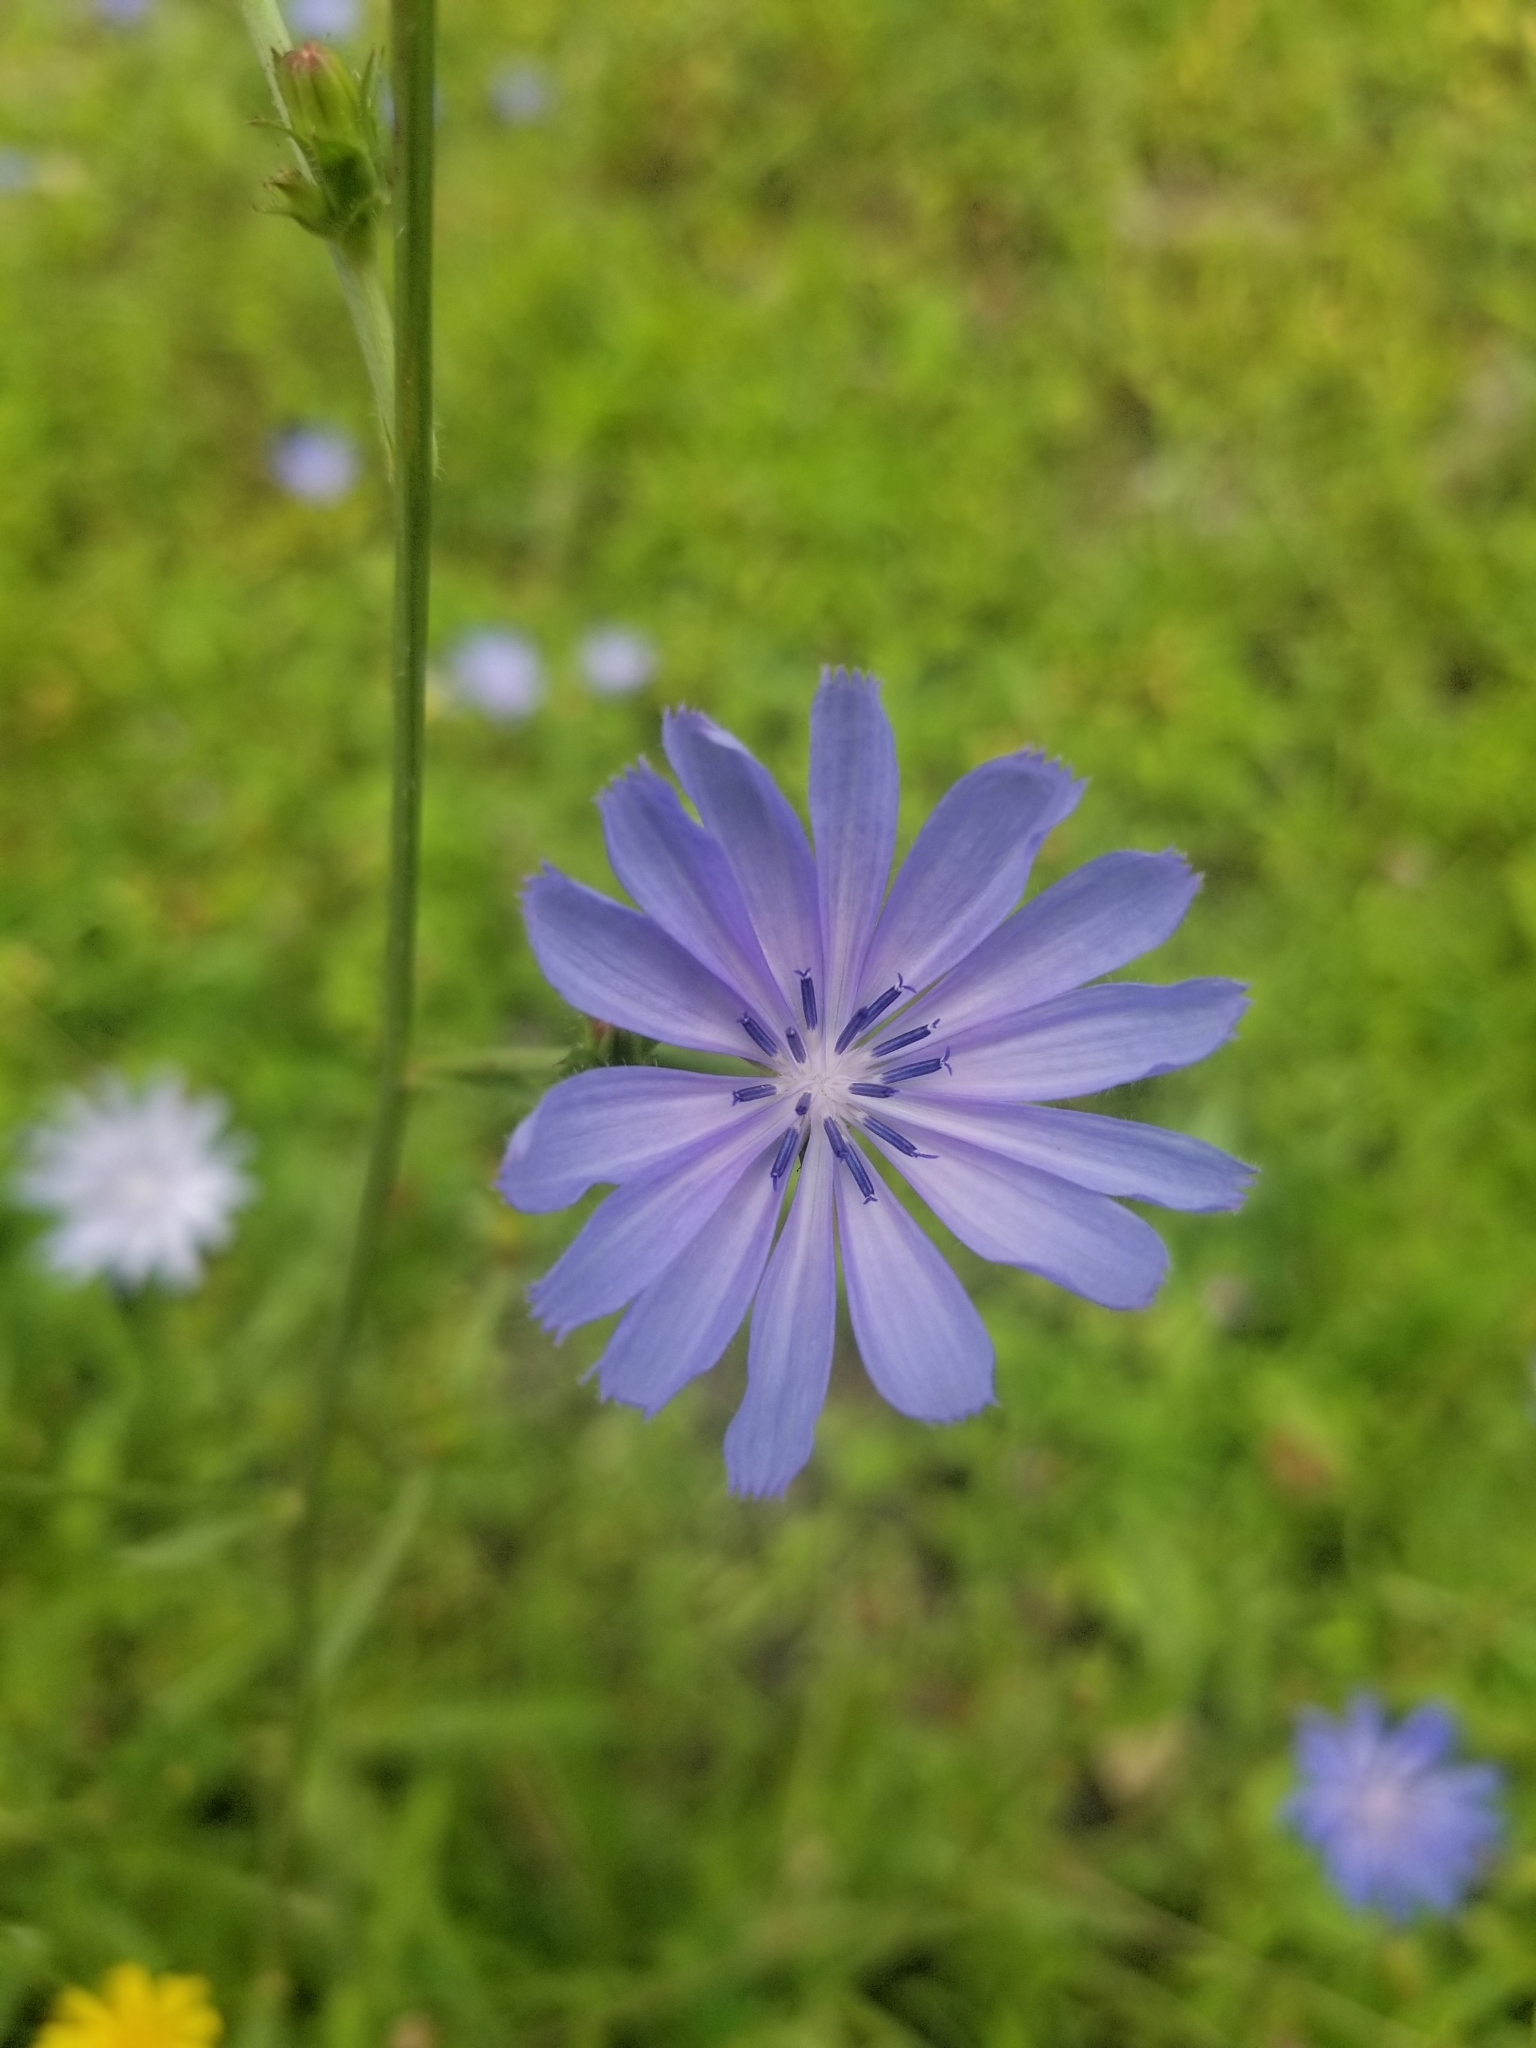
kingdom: Plantae
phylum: Tracheophyta
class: Magnoliopsida
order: Asterales
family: Asteraceae
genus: Cichorium
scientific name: Cichorium intybus
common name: Chicory
